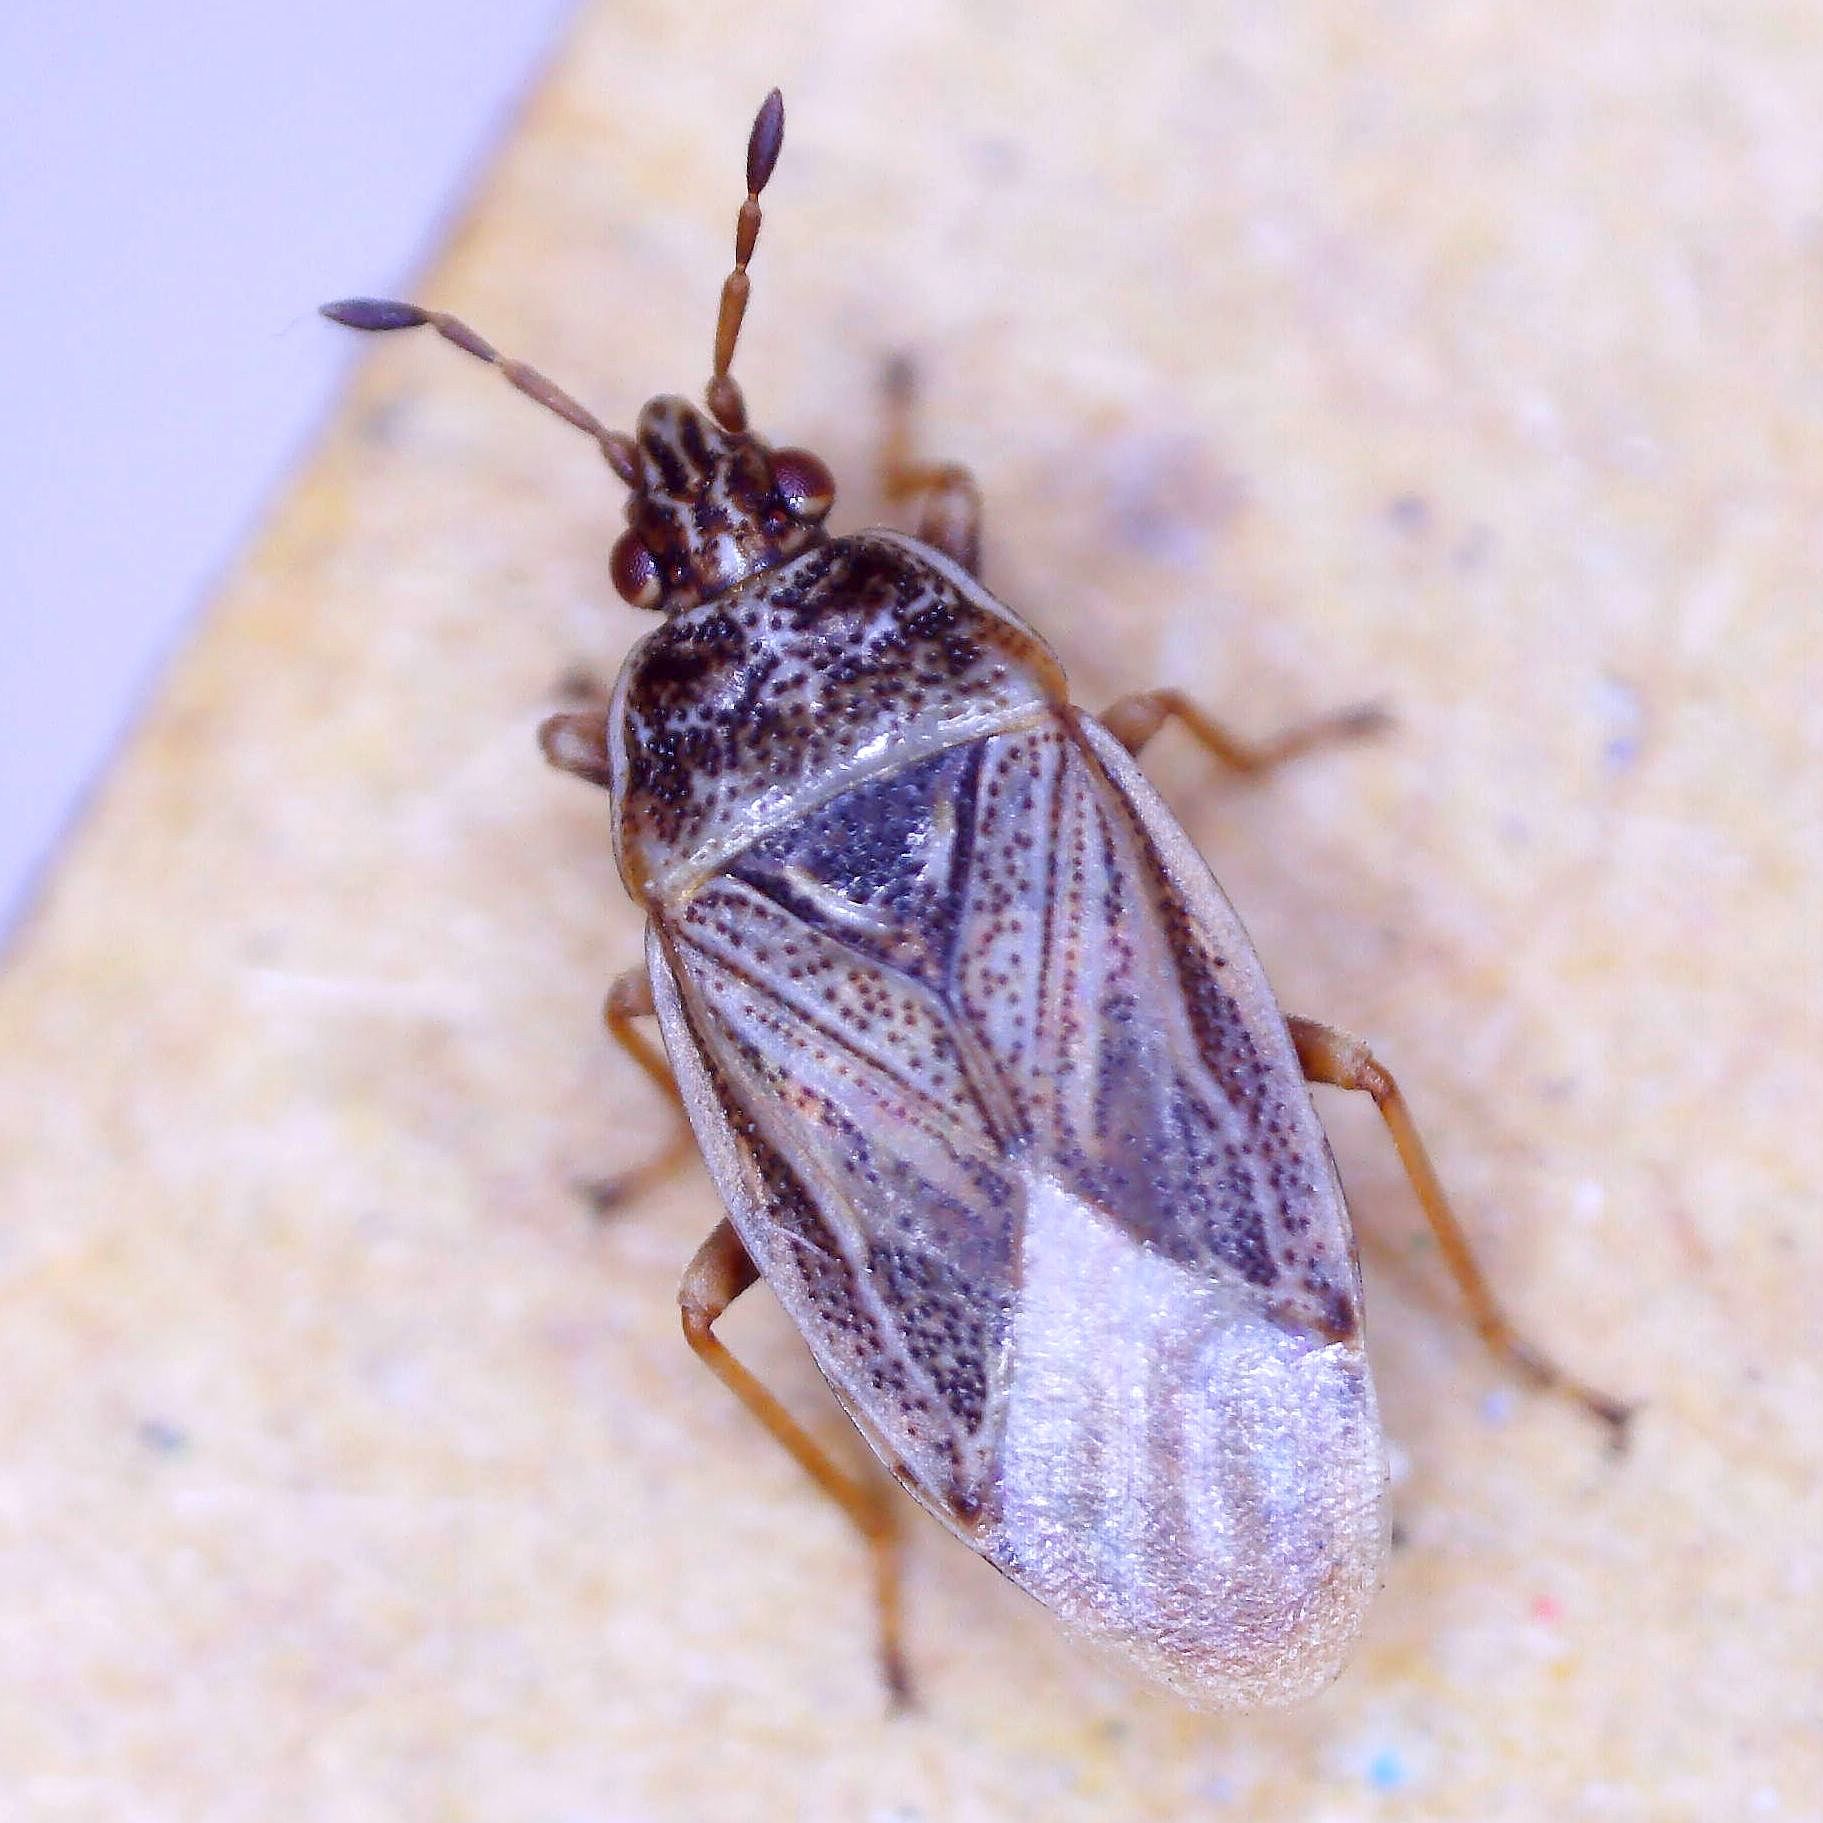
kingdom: Animalia
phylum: Arthropoda
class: Insecta
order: Hemiptera
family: Artheneidae
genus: Chilacis
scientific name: Chilacis typhae
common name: Cattail bug
